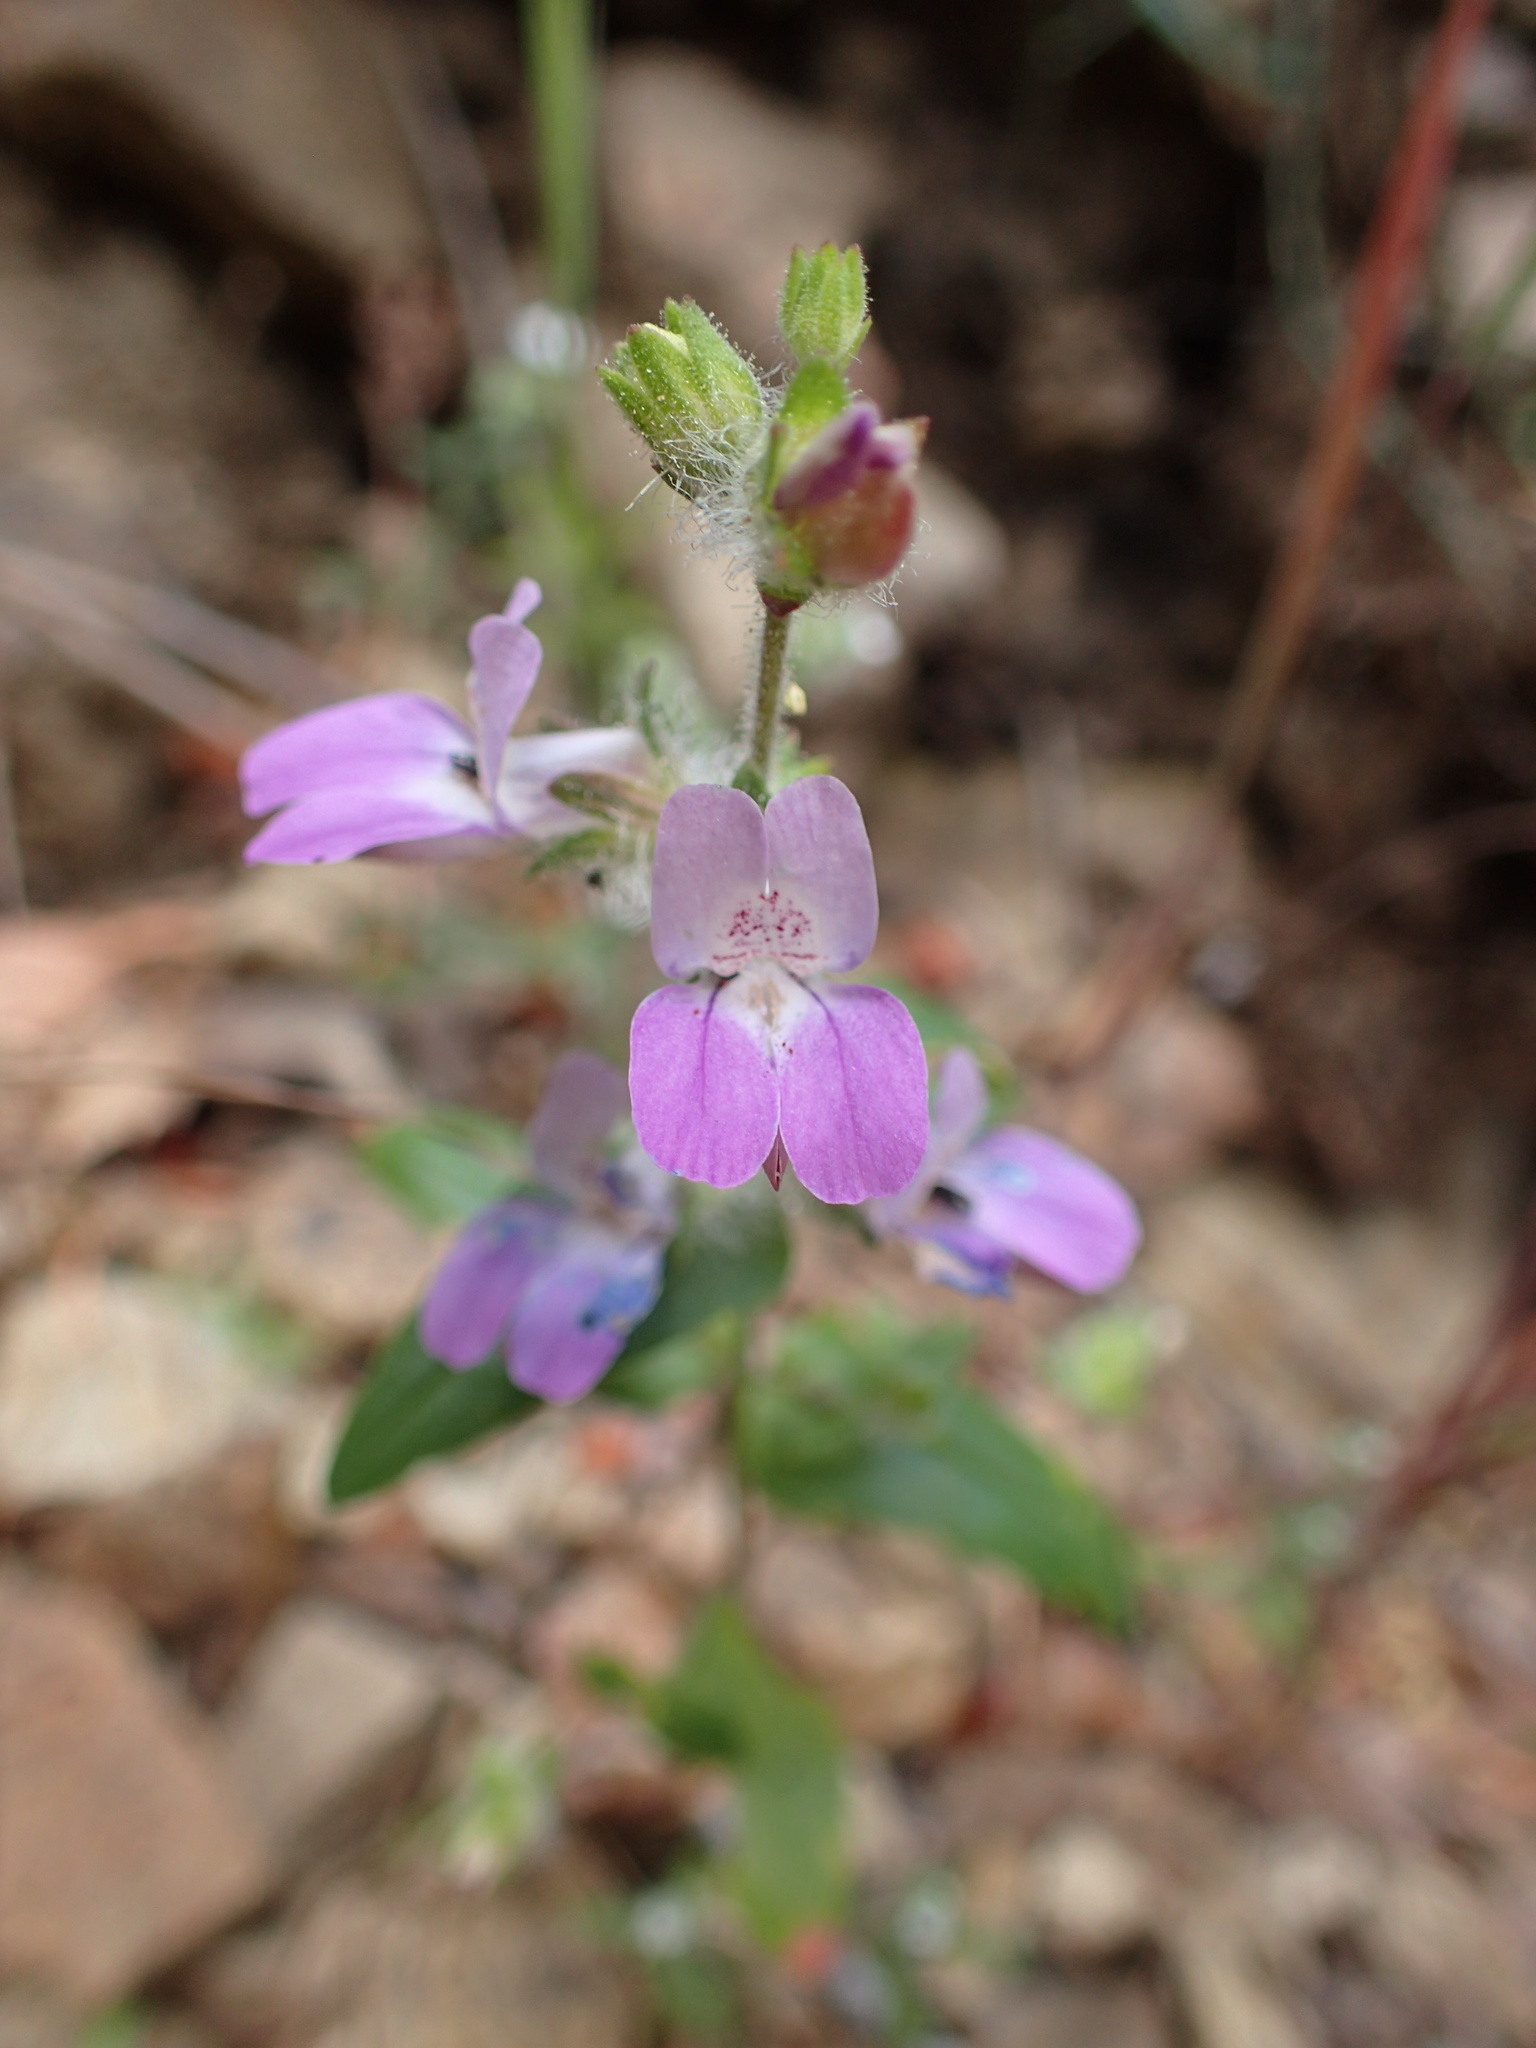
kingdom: Plantae
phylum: Tracheophyta
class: Magnoliopsida
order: Lamiales
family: Plantaginaceae
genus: Collinsia
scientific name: Collinsia heterophylla
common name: Chinese-houses
